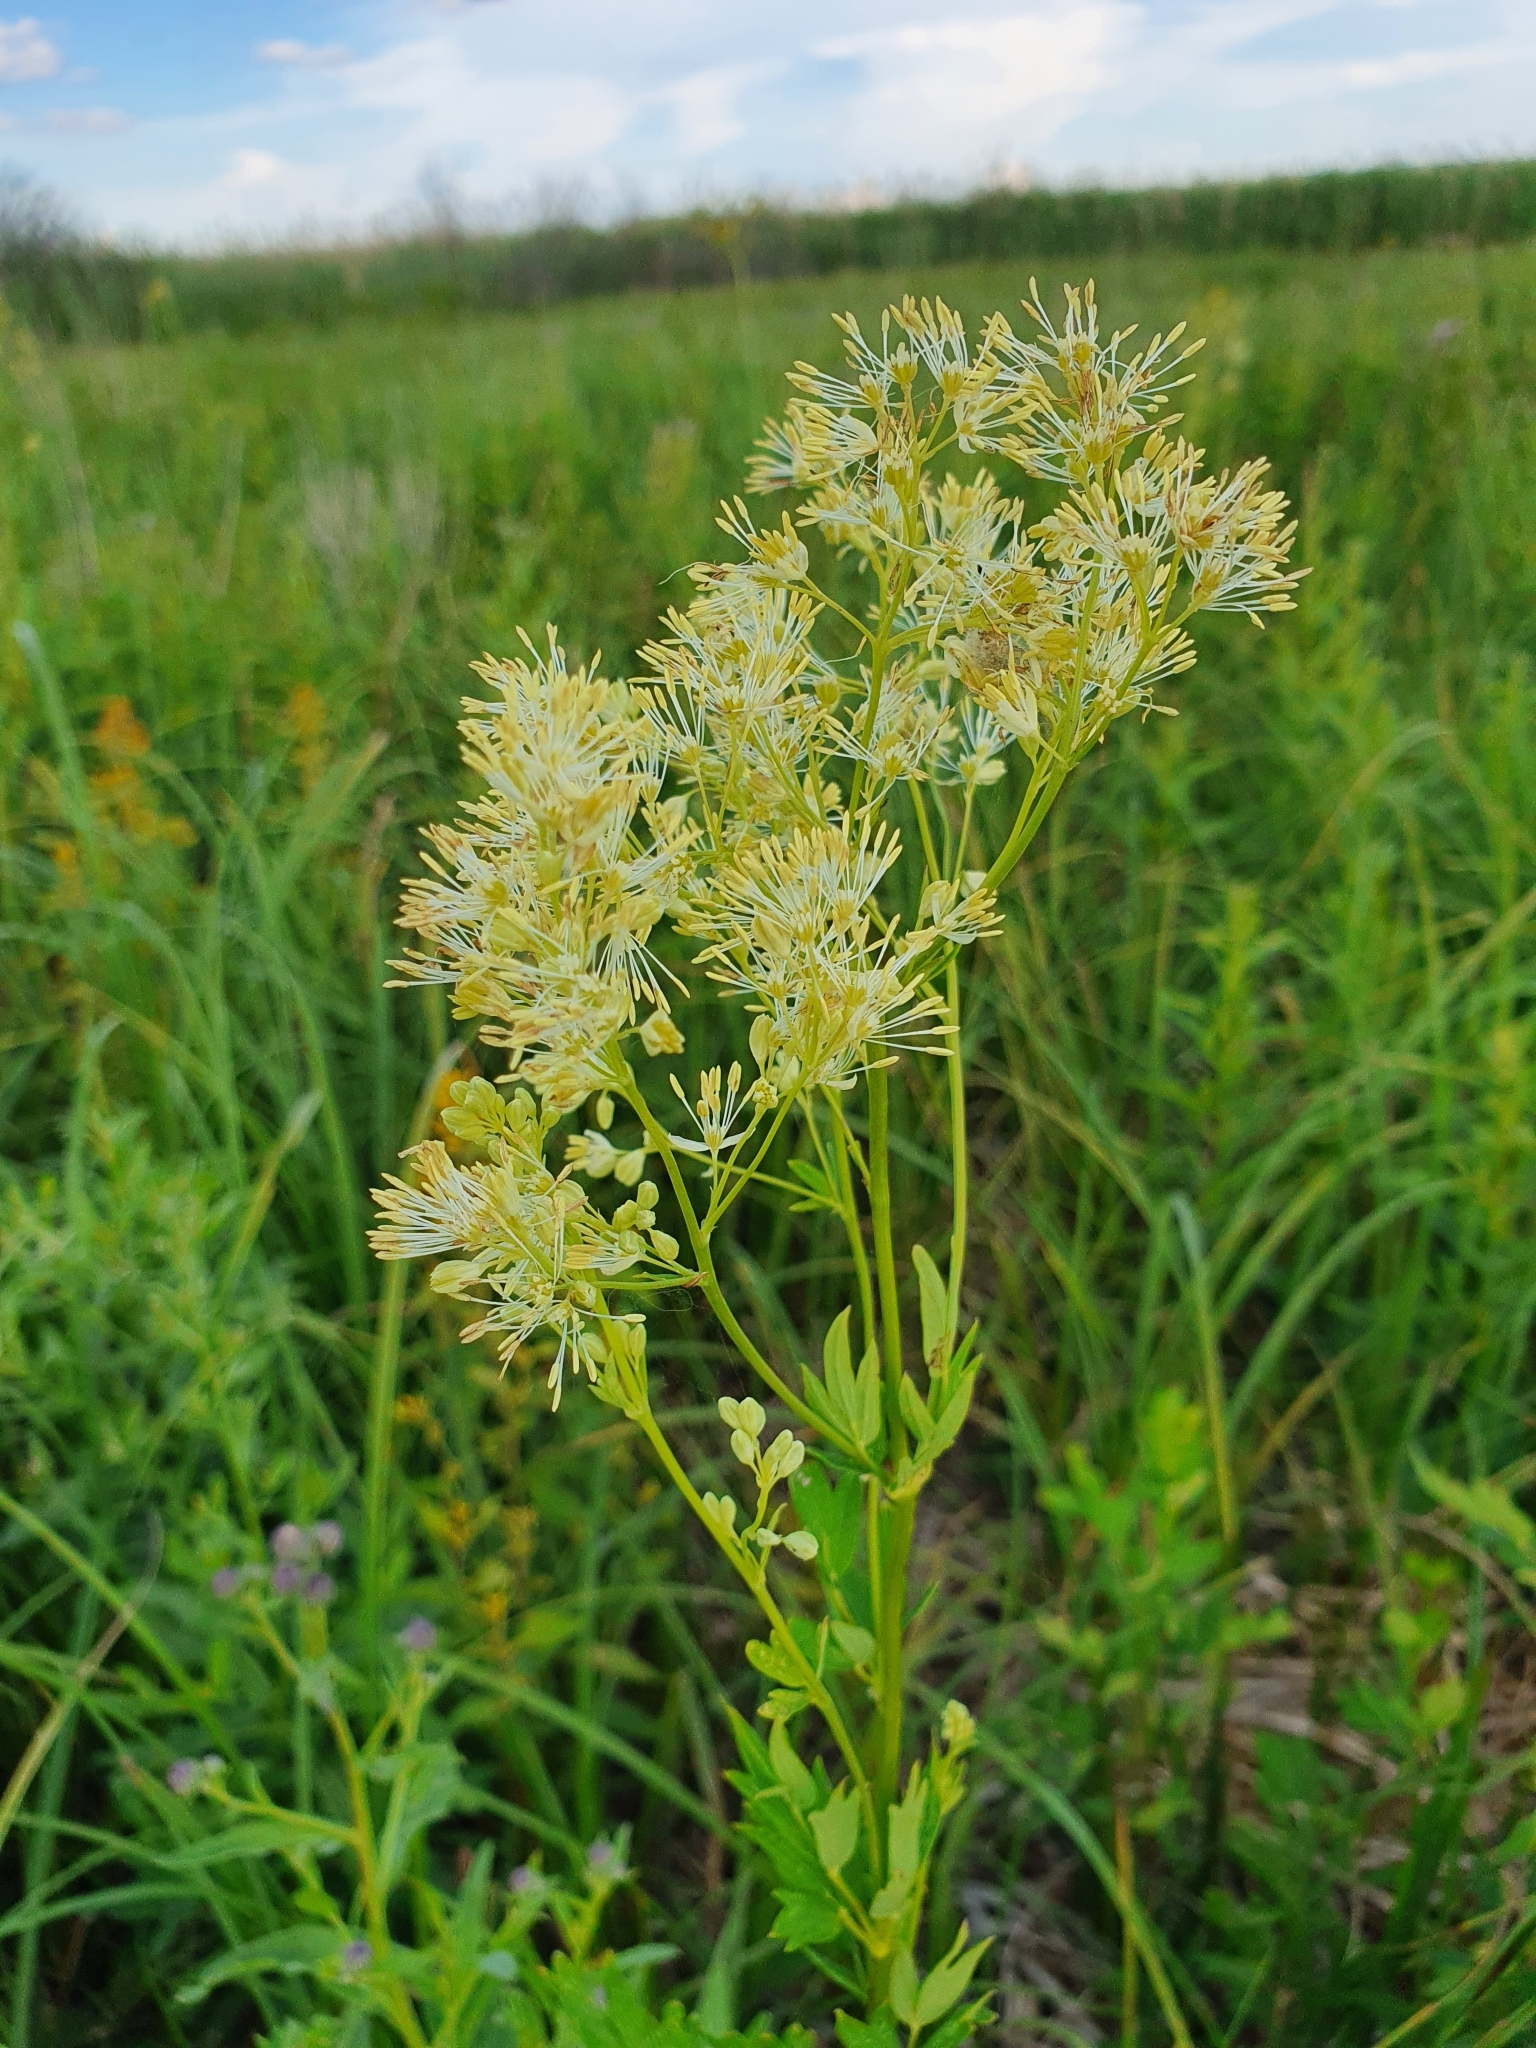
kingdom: Plantae
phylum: Tracheophyta
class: Magnoliopsida
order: Ranunculales
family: Ranunculaceae
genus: Thalictrum
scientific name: Thalictrum flavum
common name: Common meadow-rue
